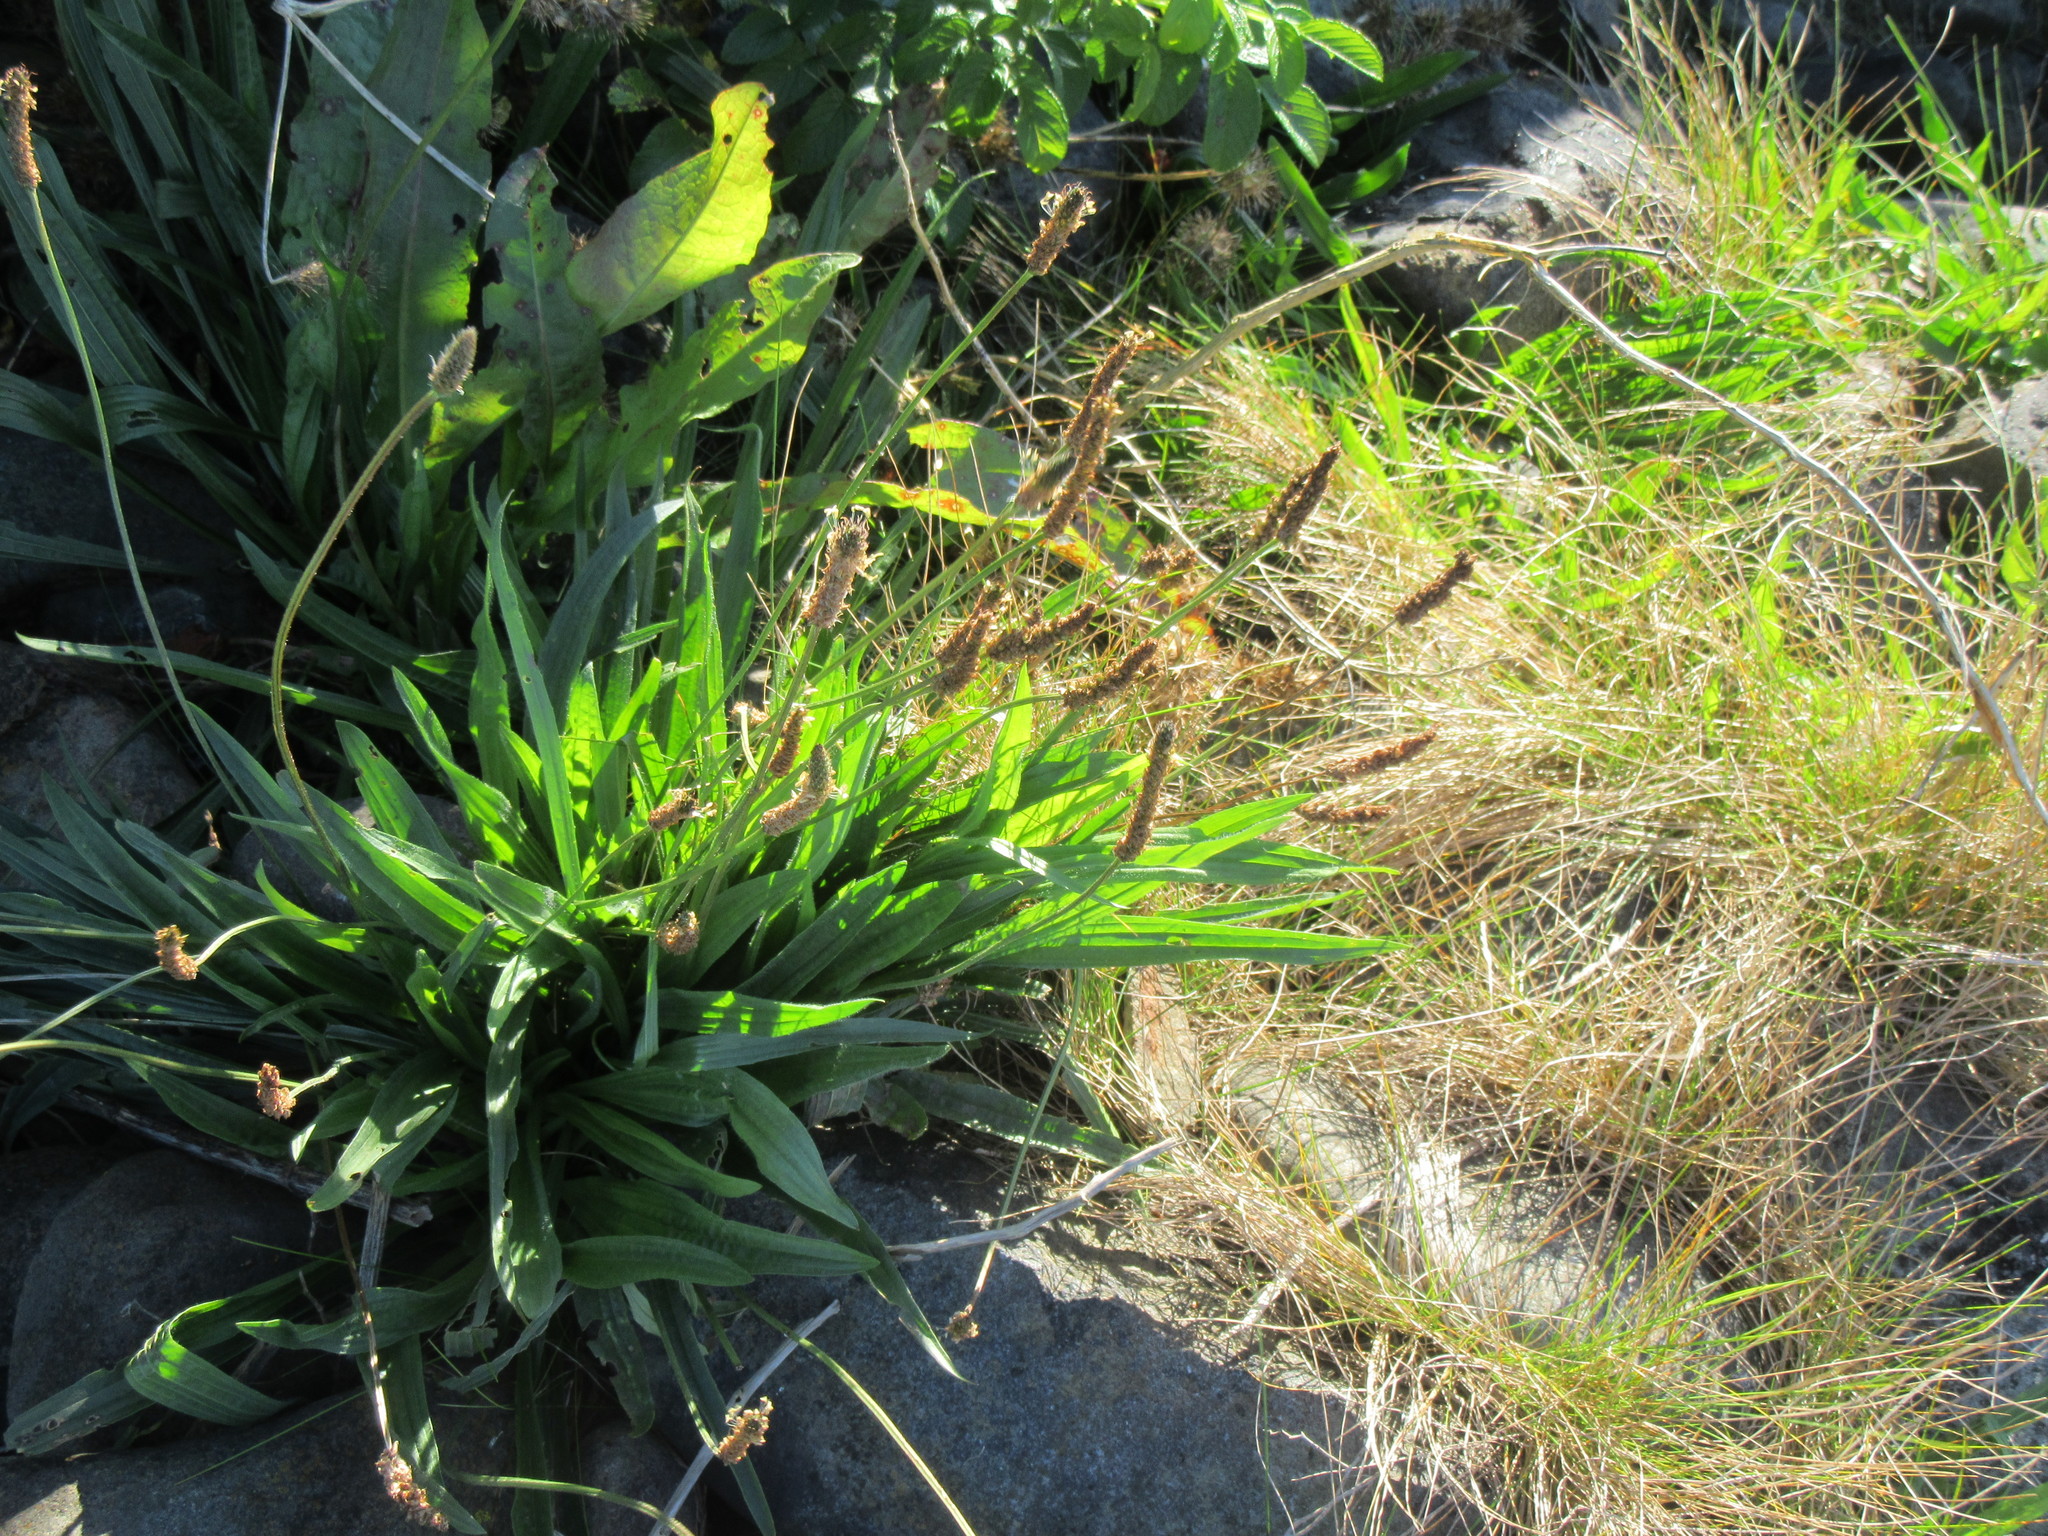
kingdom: Plantae
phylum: Tracheophyta
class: Magnoliopsida
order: Lamiales
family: Plantaginaceae
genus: Plantago
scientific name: Plantago maritima
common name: Sea plantain
